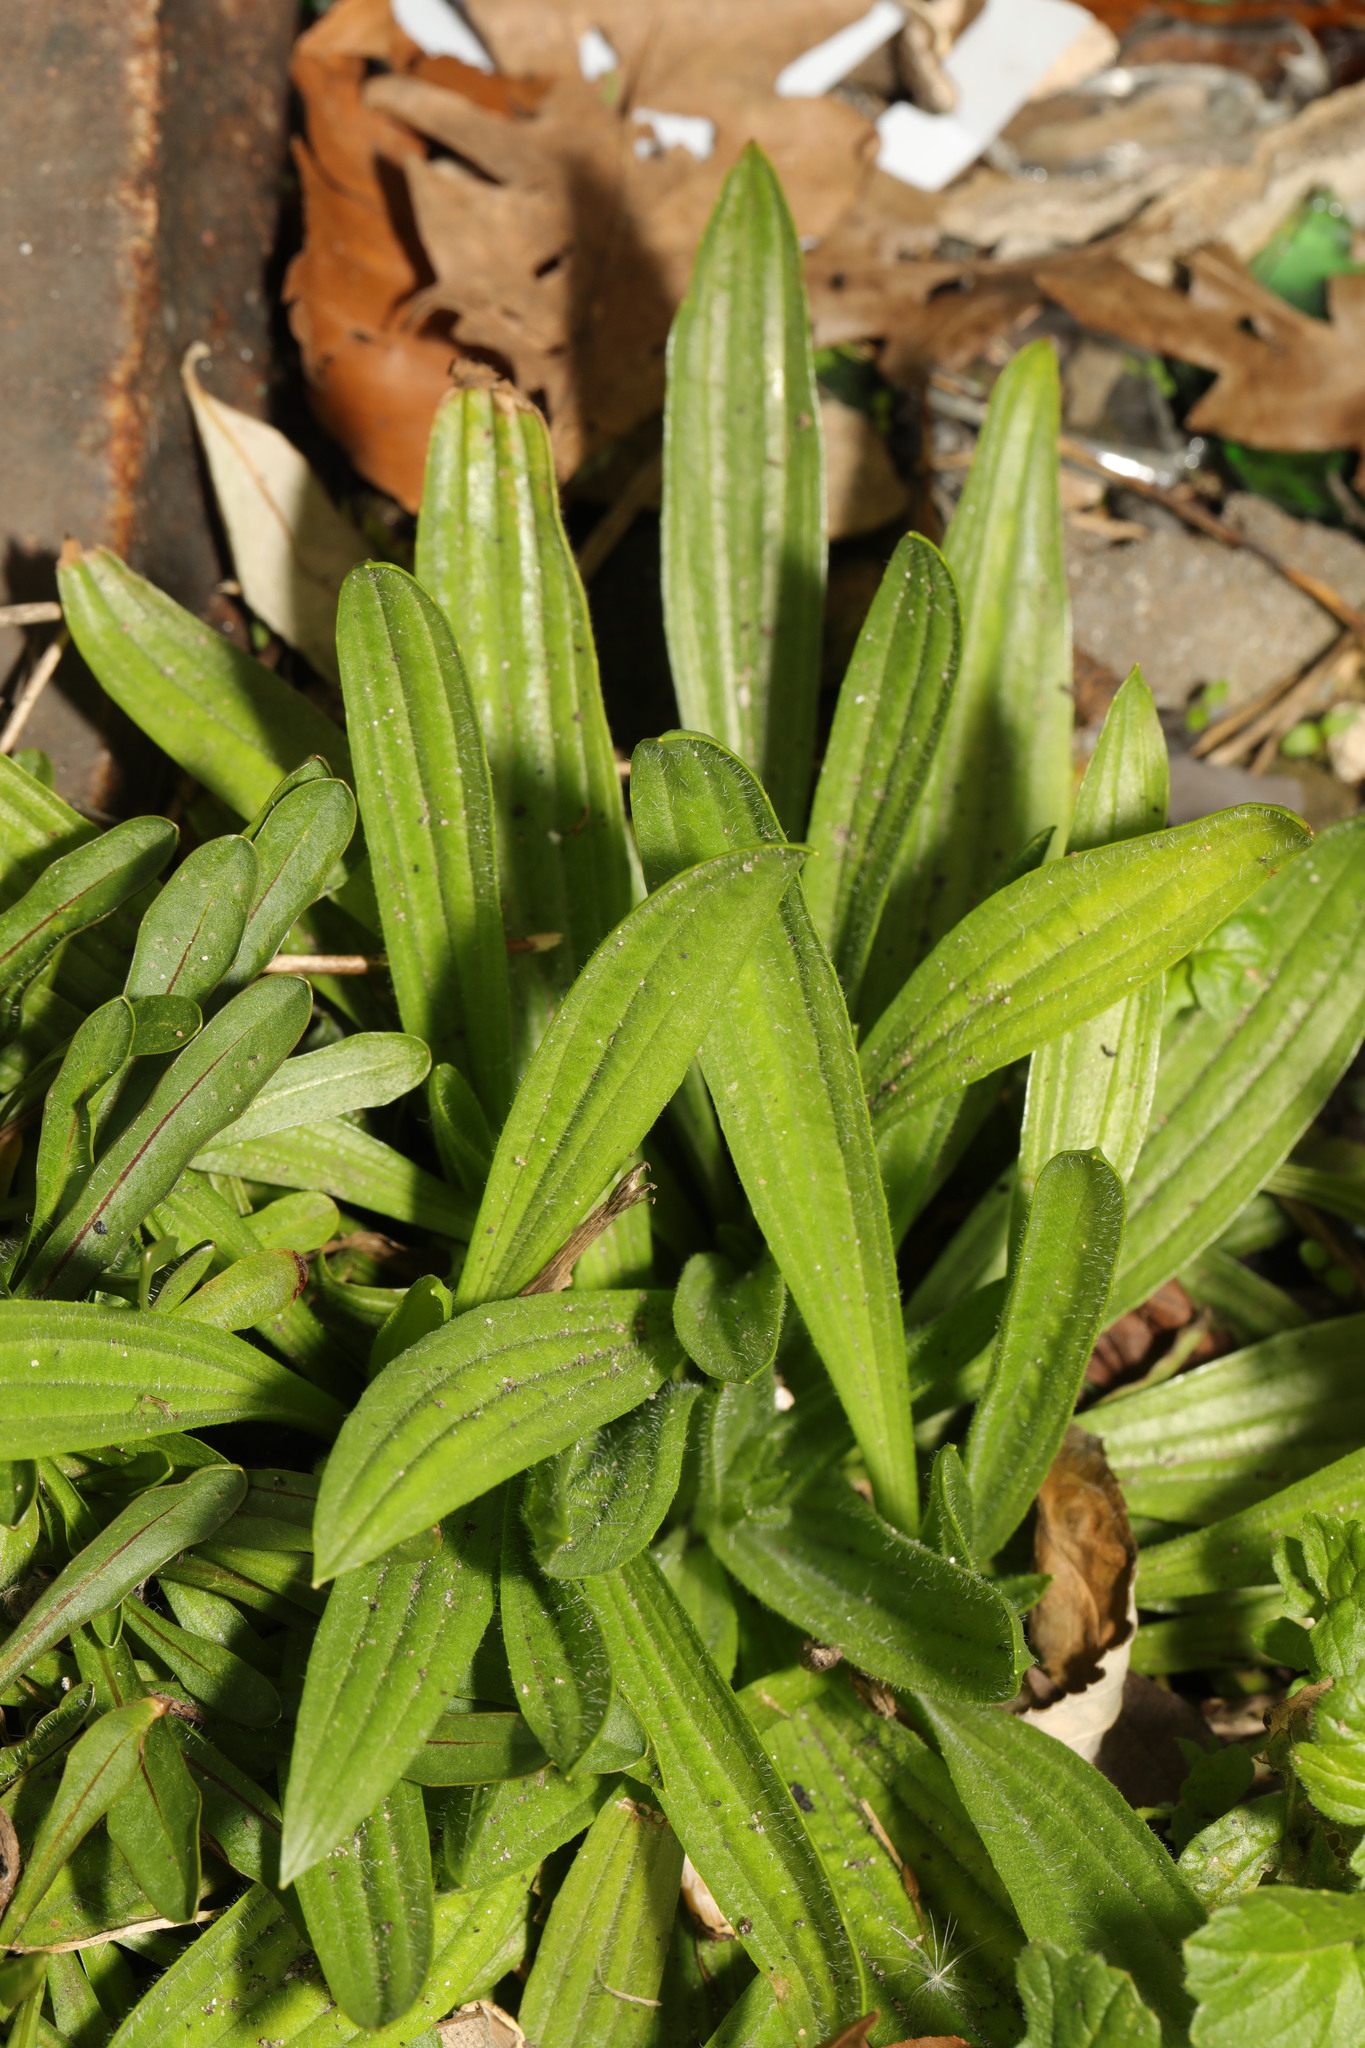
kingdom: Plantae
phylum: Tracheophyta
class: Magnoliopsida
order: Lamiales
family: Plantaginaceae
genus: Plantago
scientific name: Plantago lanceolata
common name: Ribwort plantain
